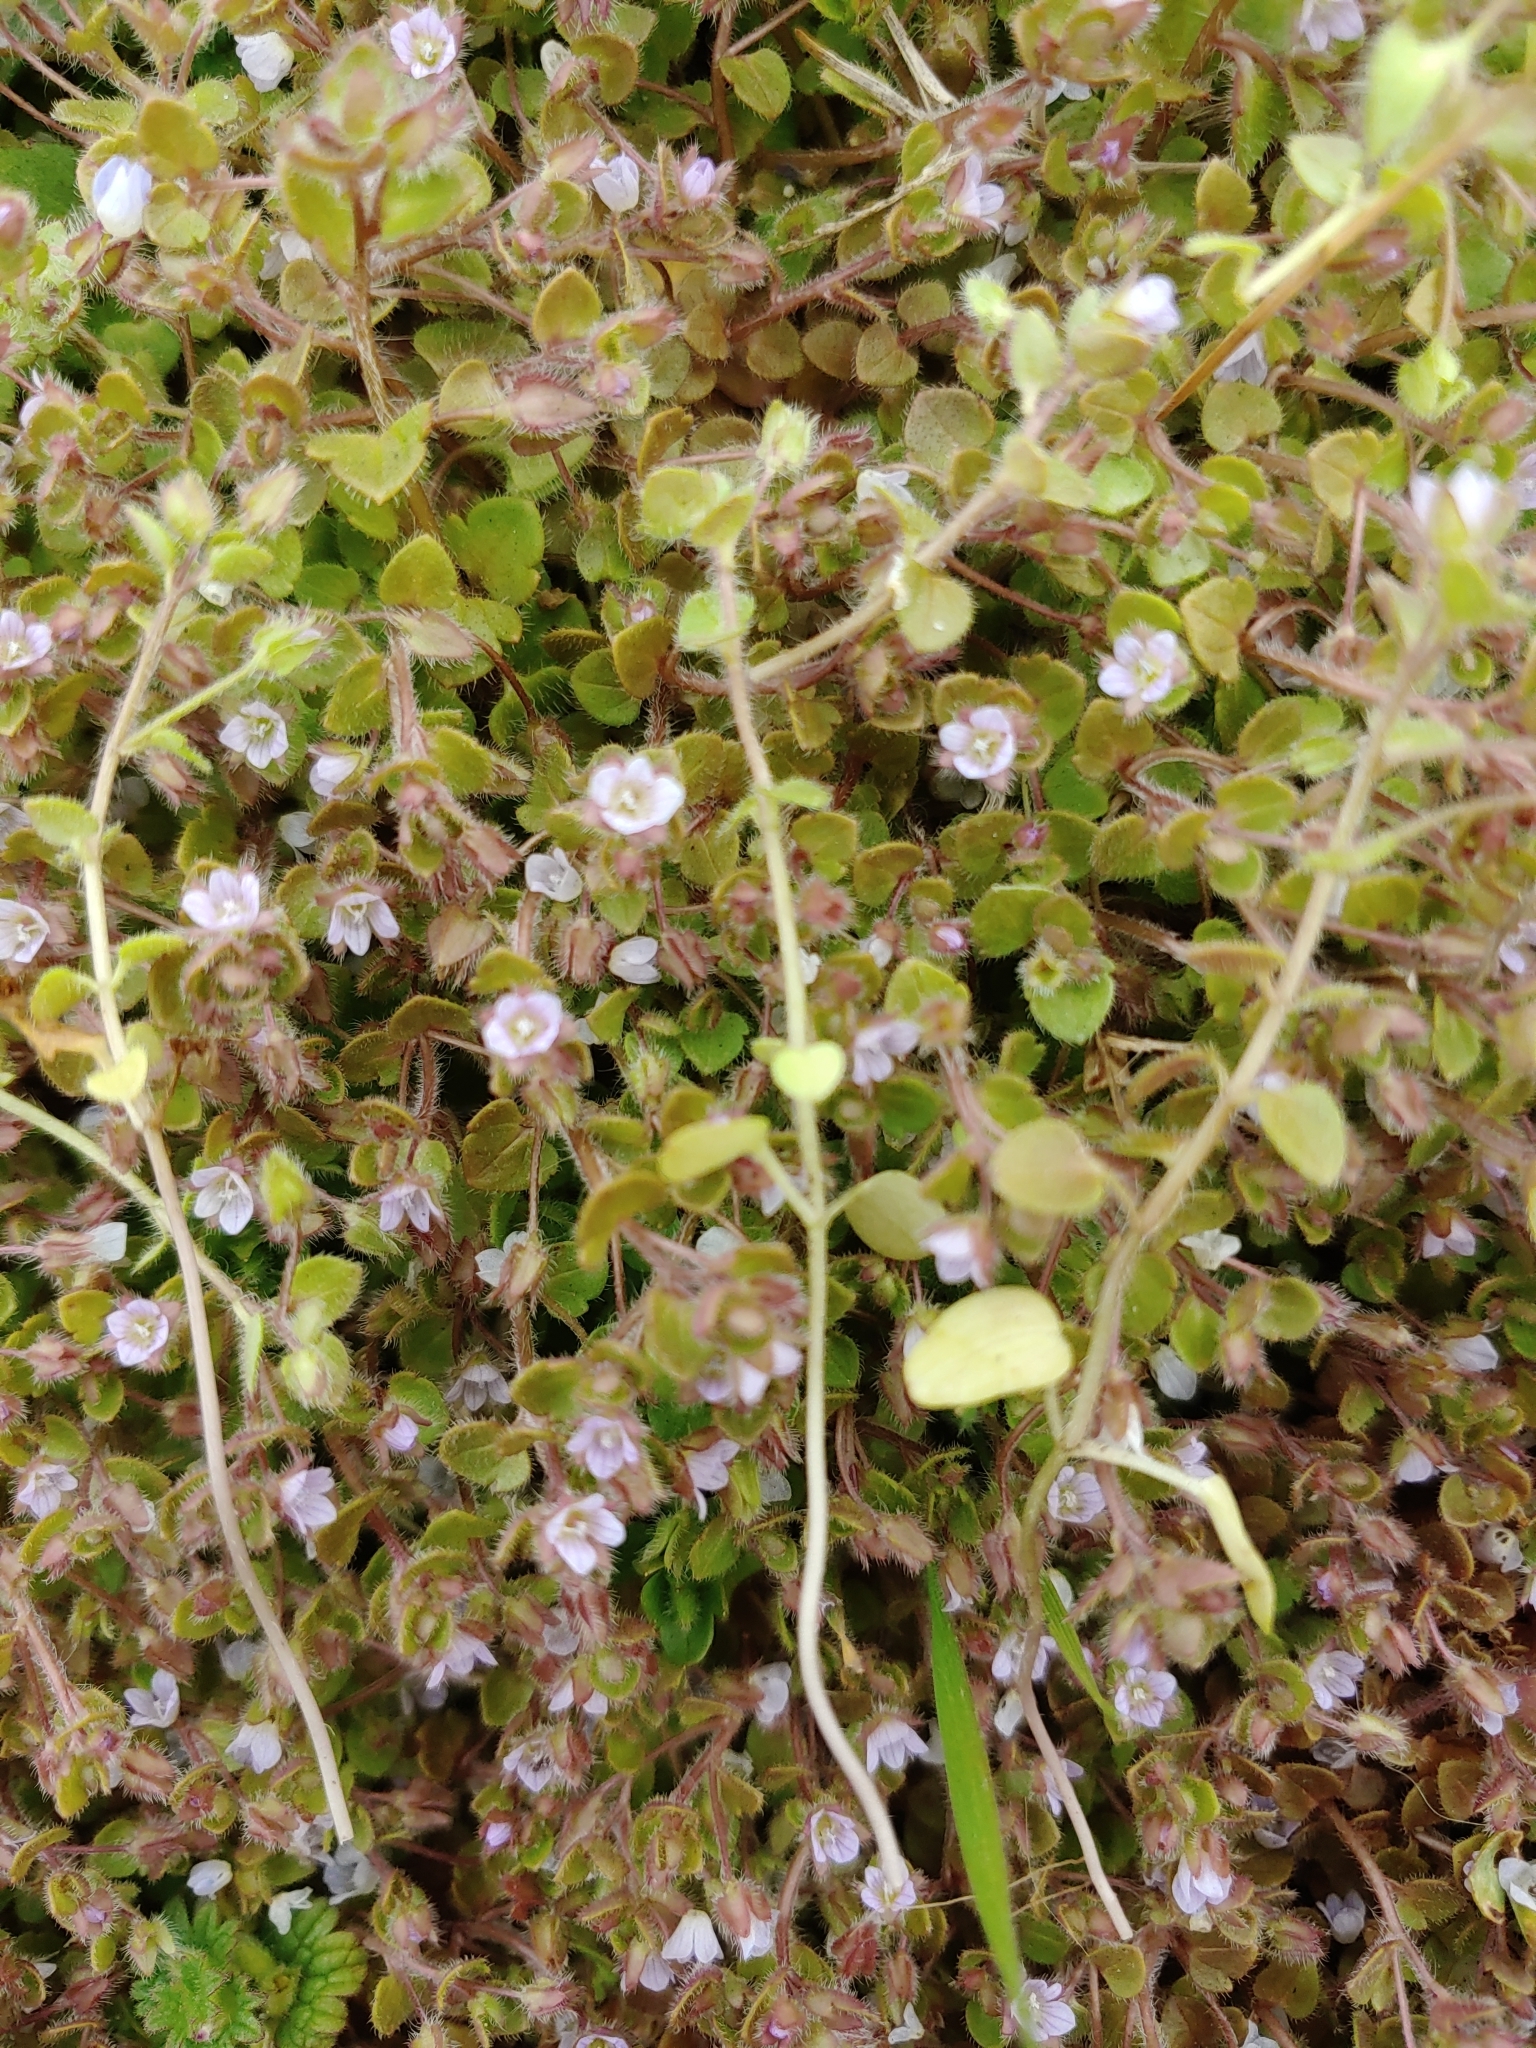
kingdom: Plantae
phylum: Tracheophyta
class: Magnoliopsida
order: Lamiales
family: Plantaginaceae
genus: Veronica
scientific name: Veronica hederifolia
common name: Ivy-leaved speedwell
